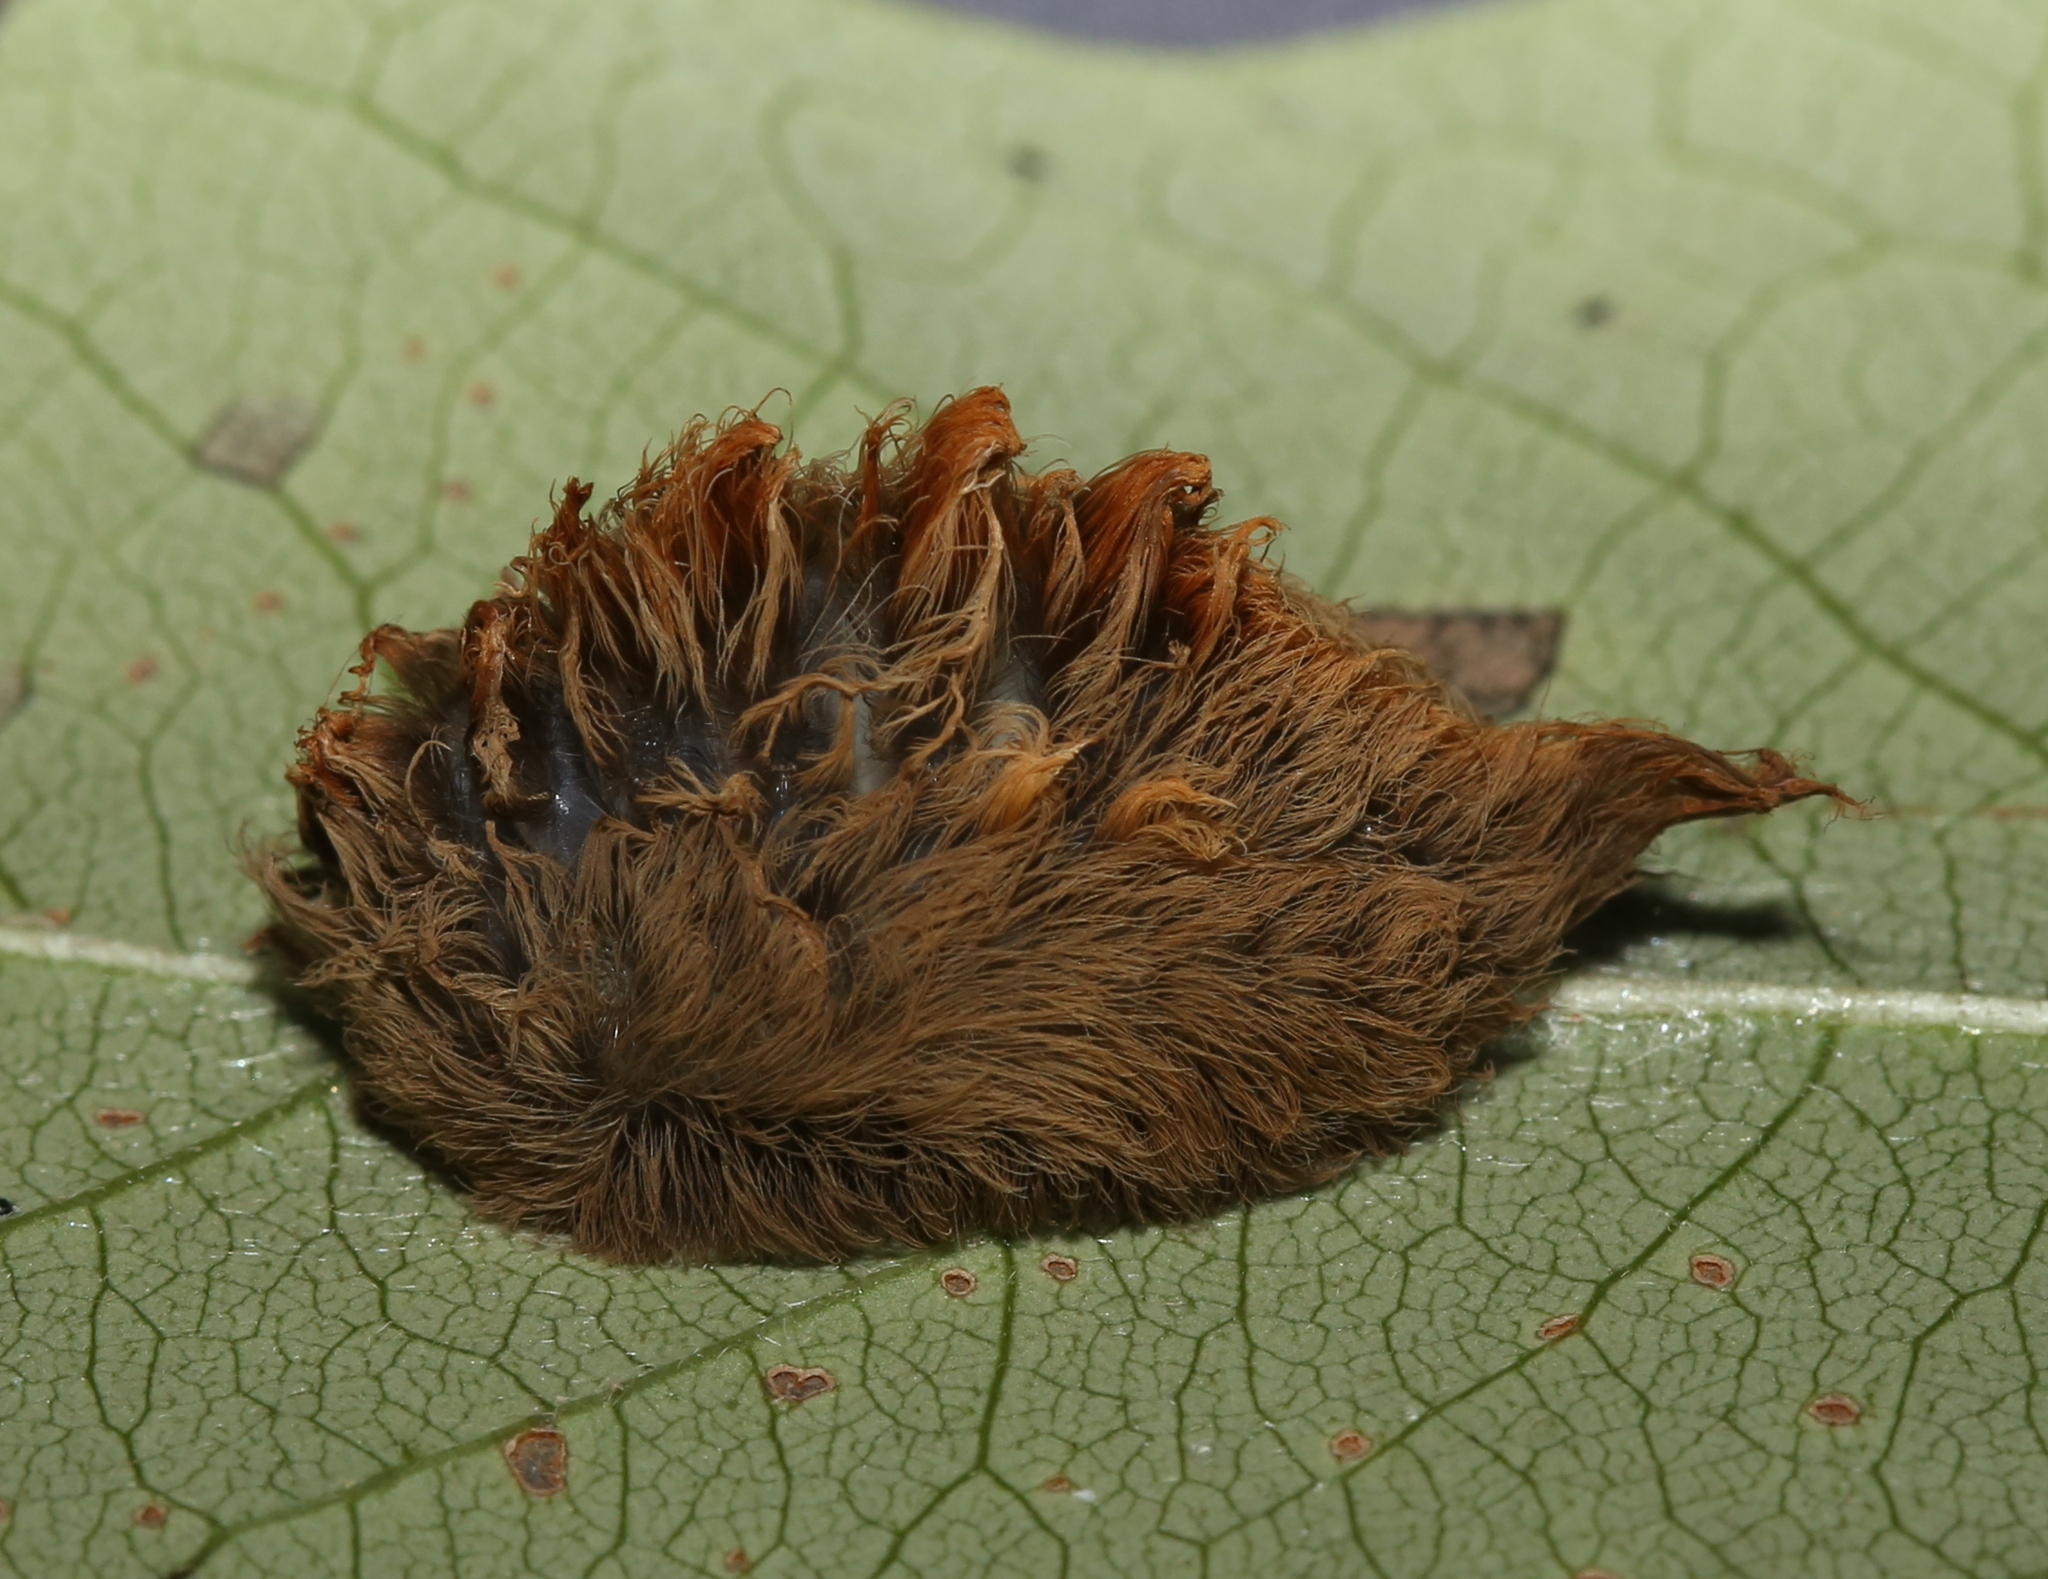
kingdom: Animalia
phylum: Arthropoda
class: Insecta
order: Lepidoptera
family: Megalopygidae
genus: Megalopyge
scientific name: Megalopyge opercularis
